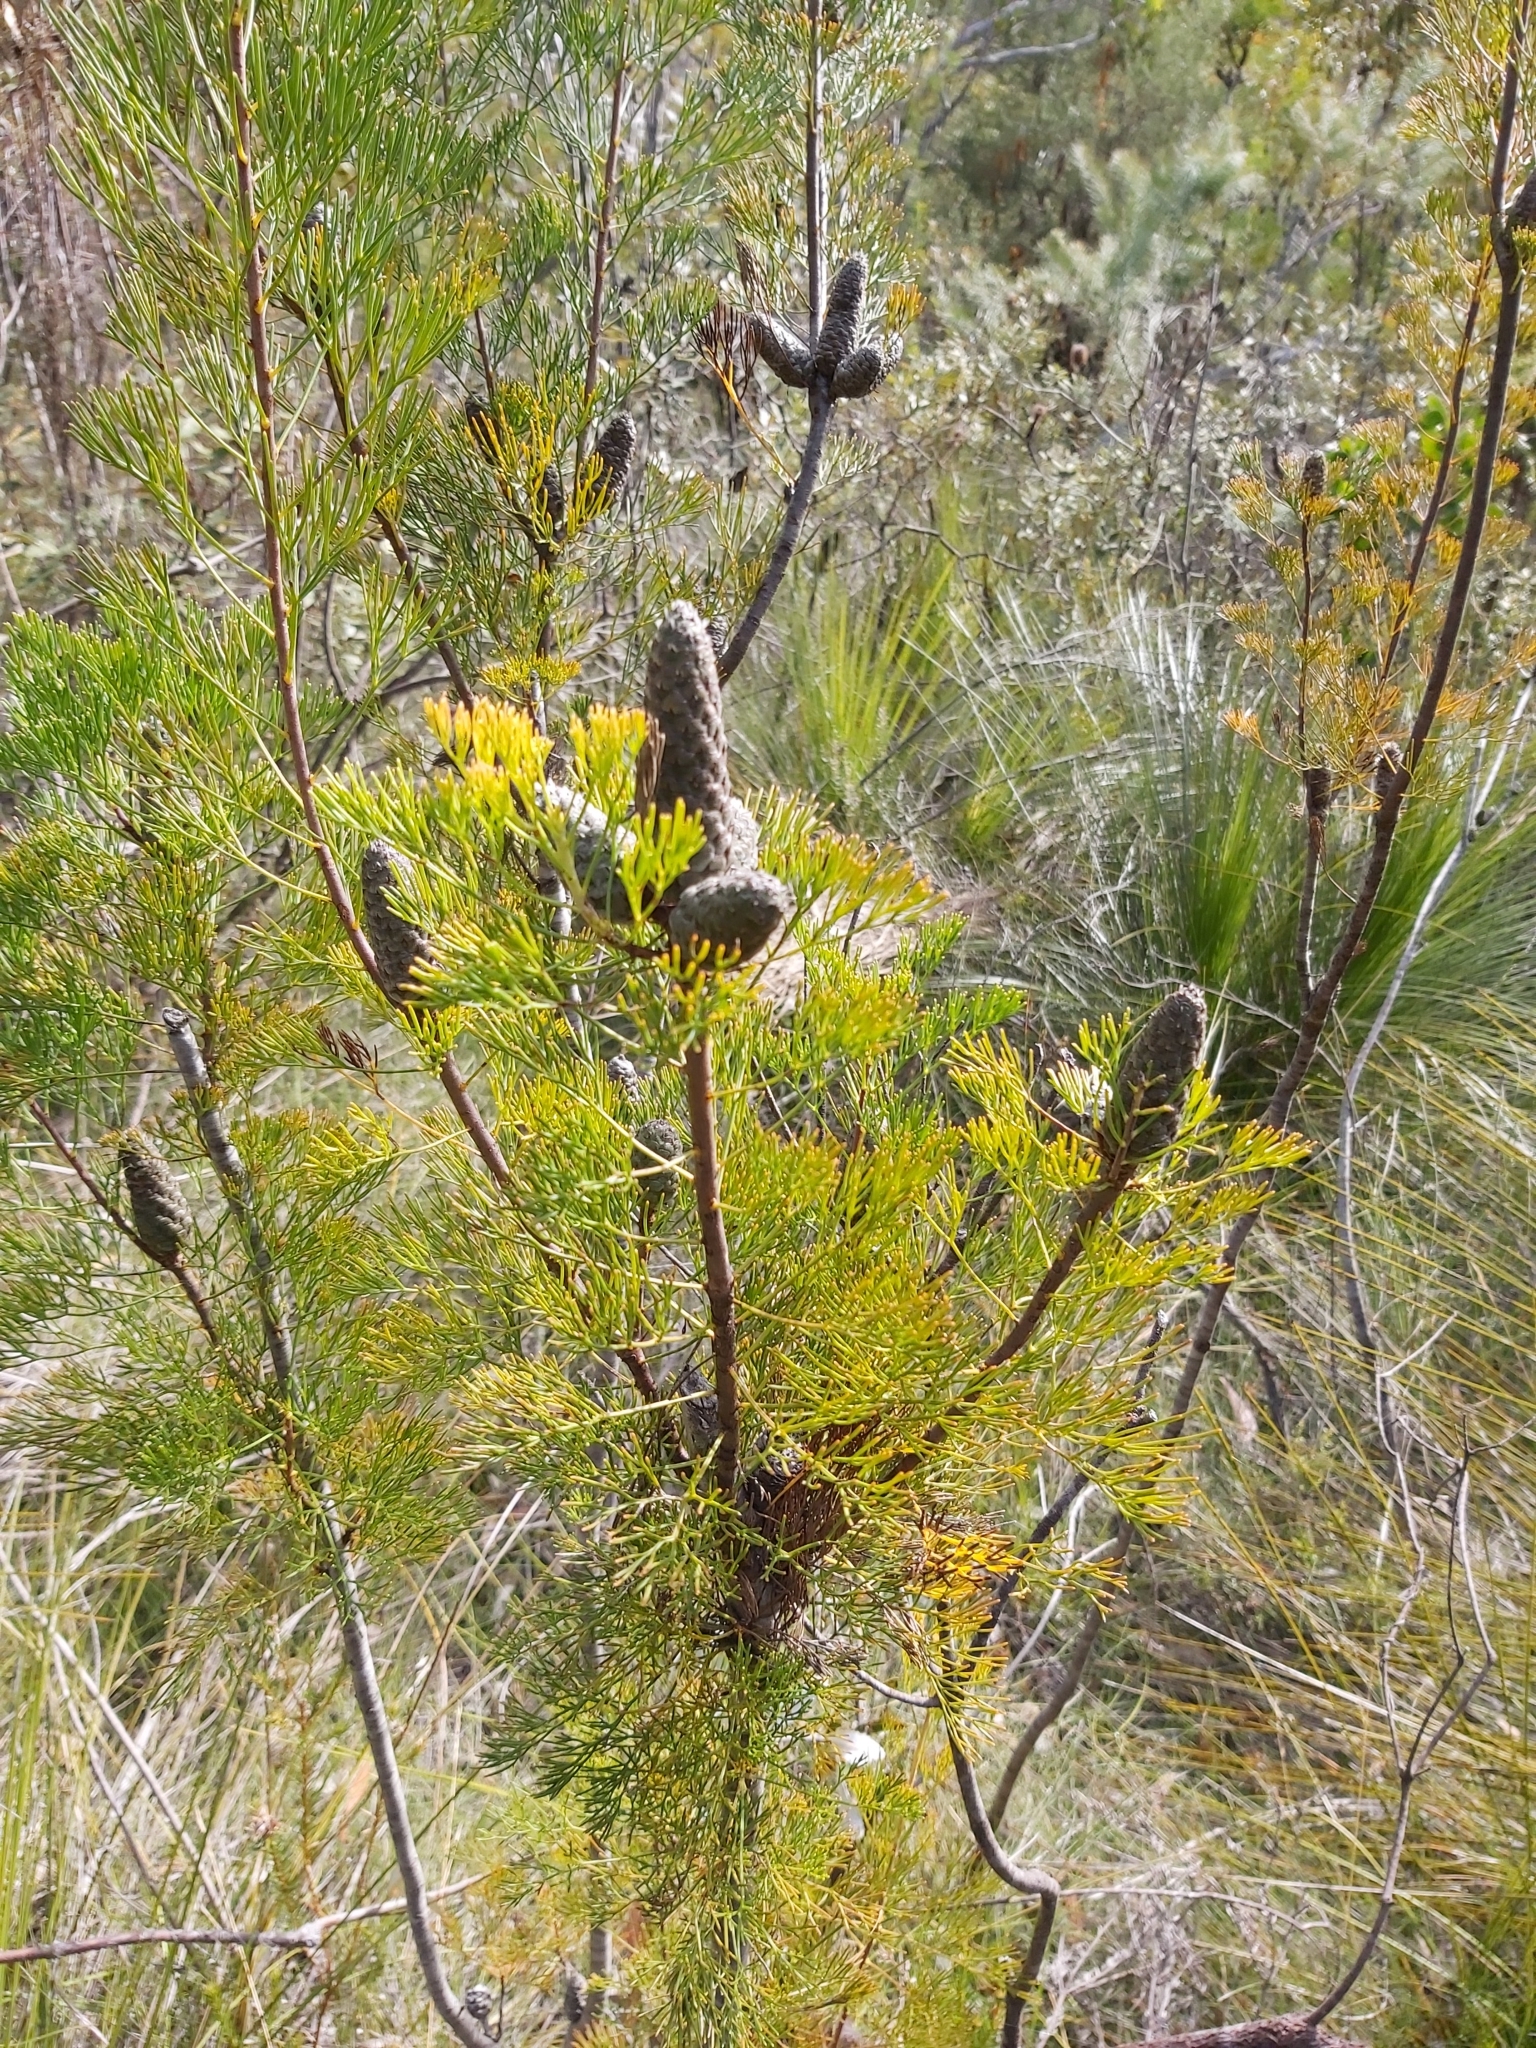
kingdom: Plantae
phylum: Tracheophyta
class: Magnoliopsida
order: Proteales
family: Proteaceae
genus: Petrophile
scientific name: Petrophile pulchella
